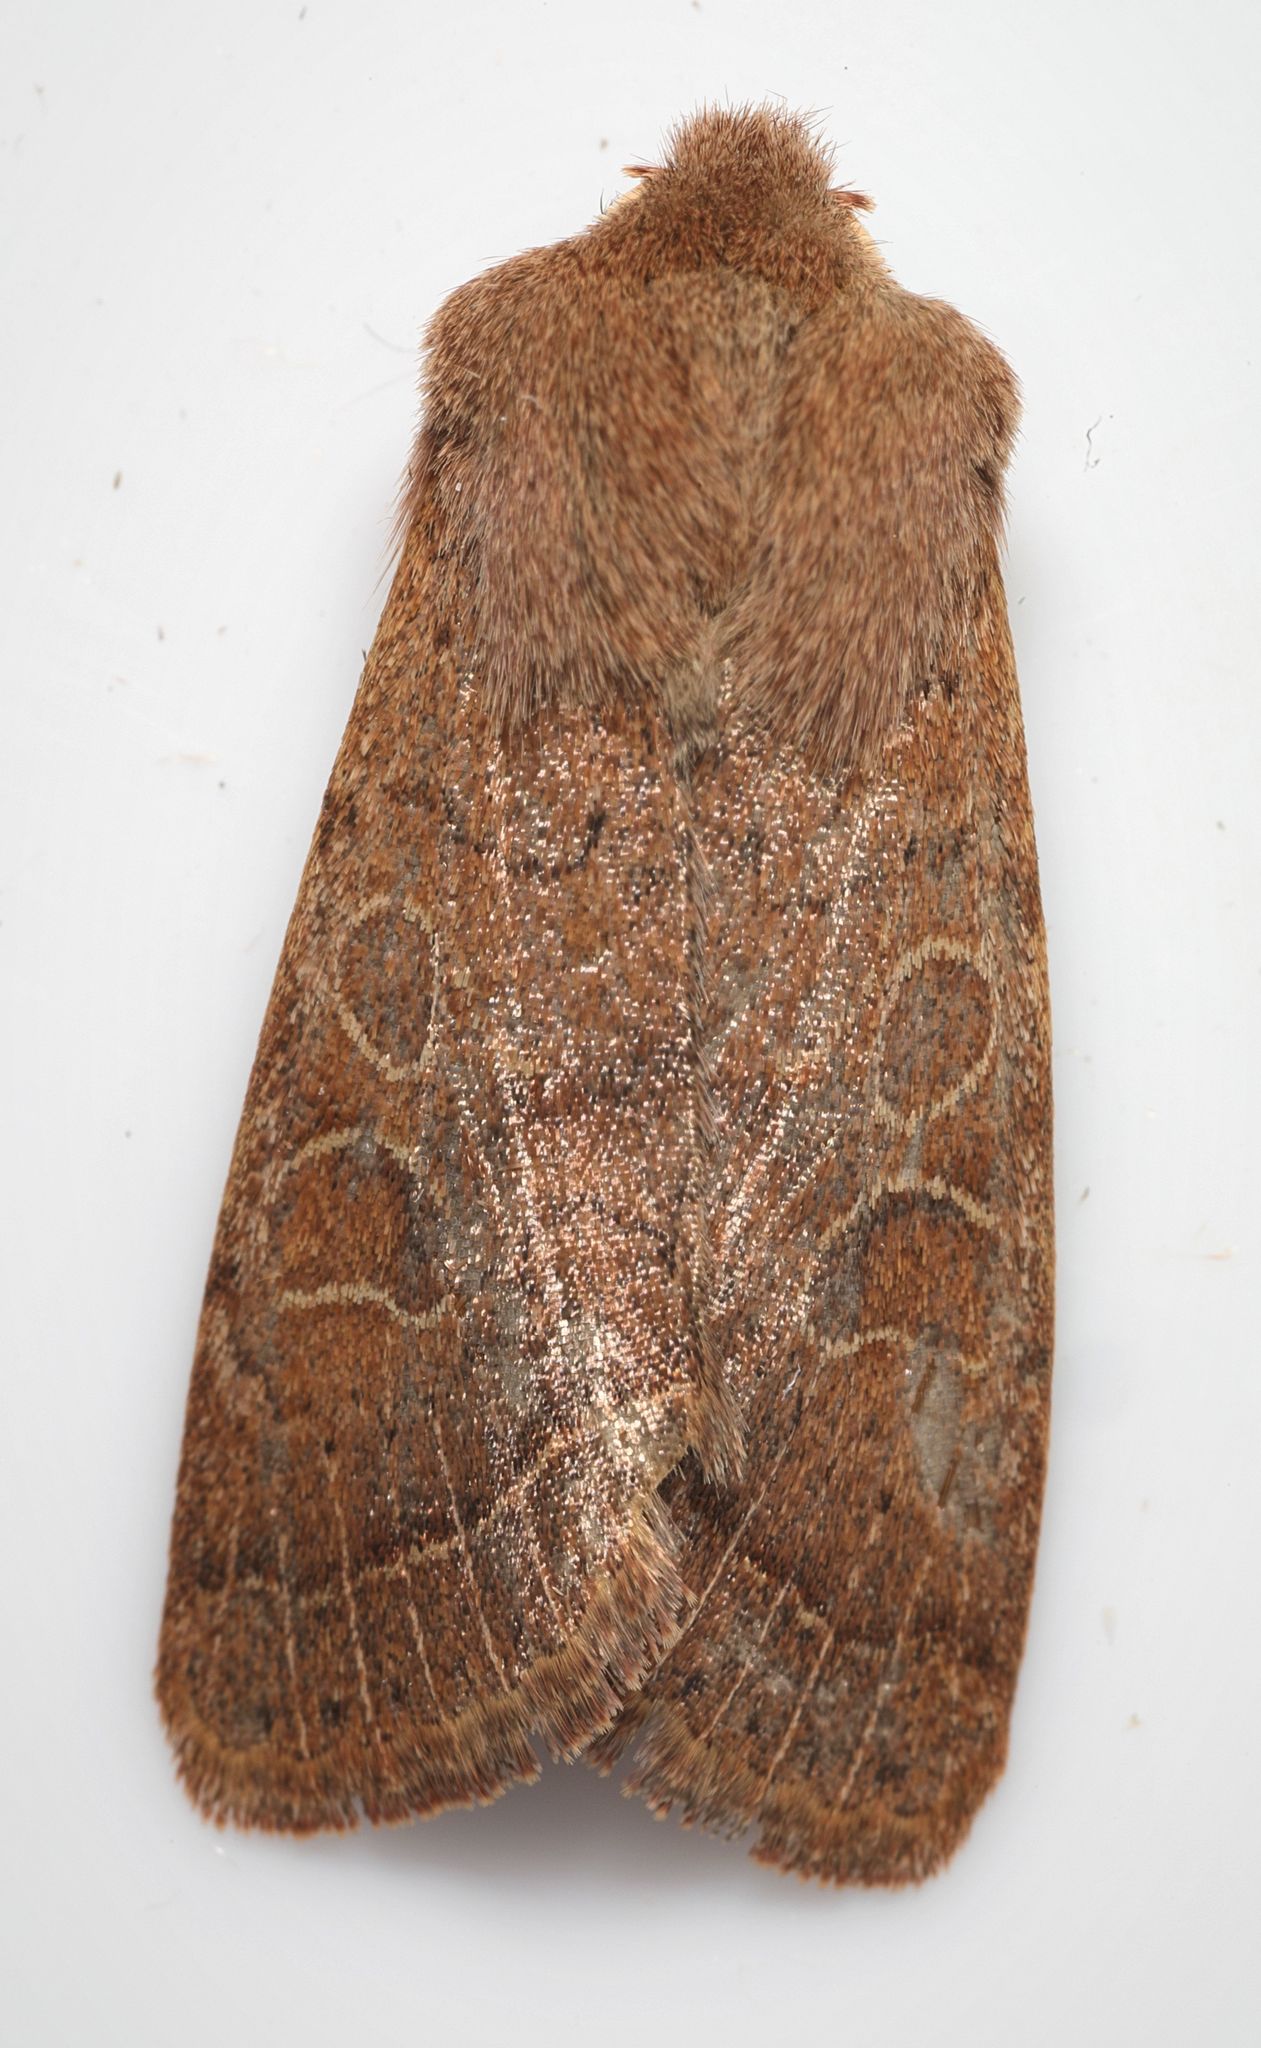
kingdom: Animalia
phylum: Arthropoda
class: Insecta
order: Lepidoptera
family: Noctuidae
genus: Orthosia
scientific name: Orthosia cerasi
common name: Common quaker
